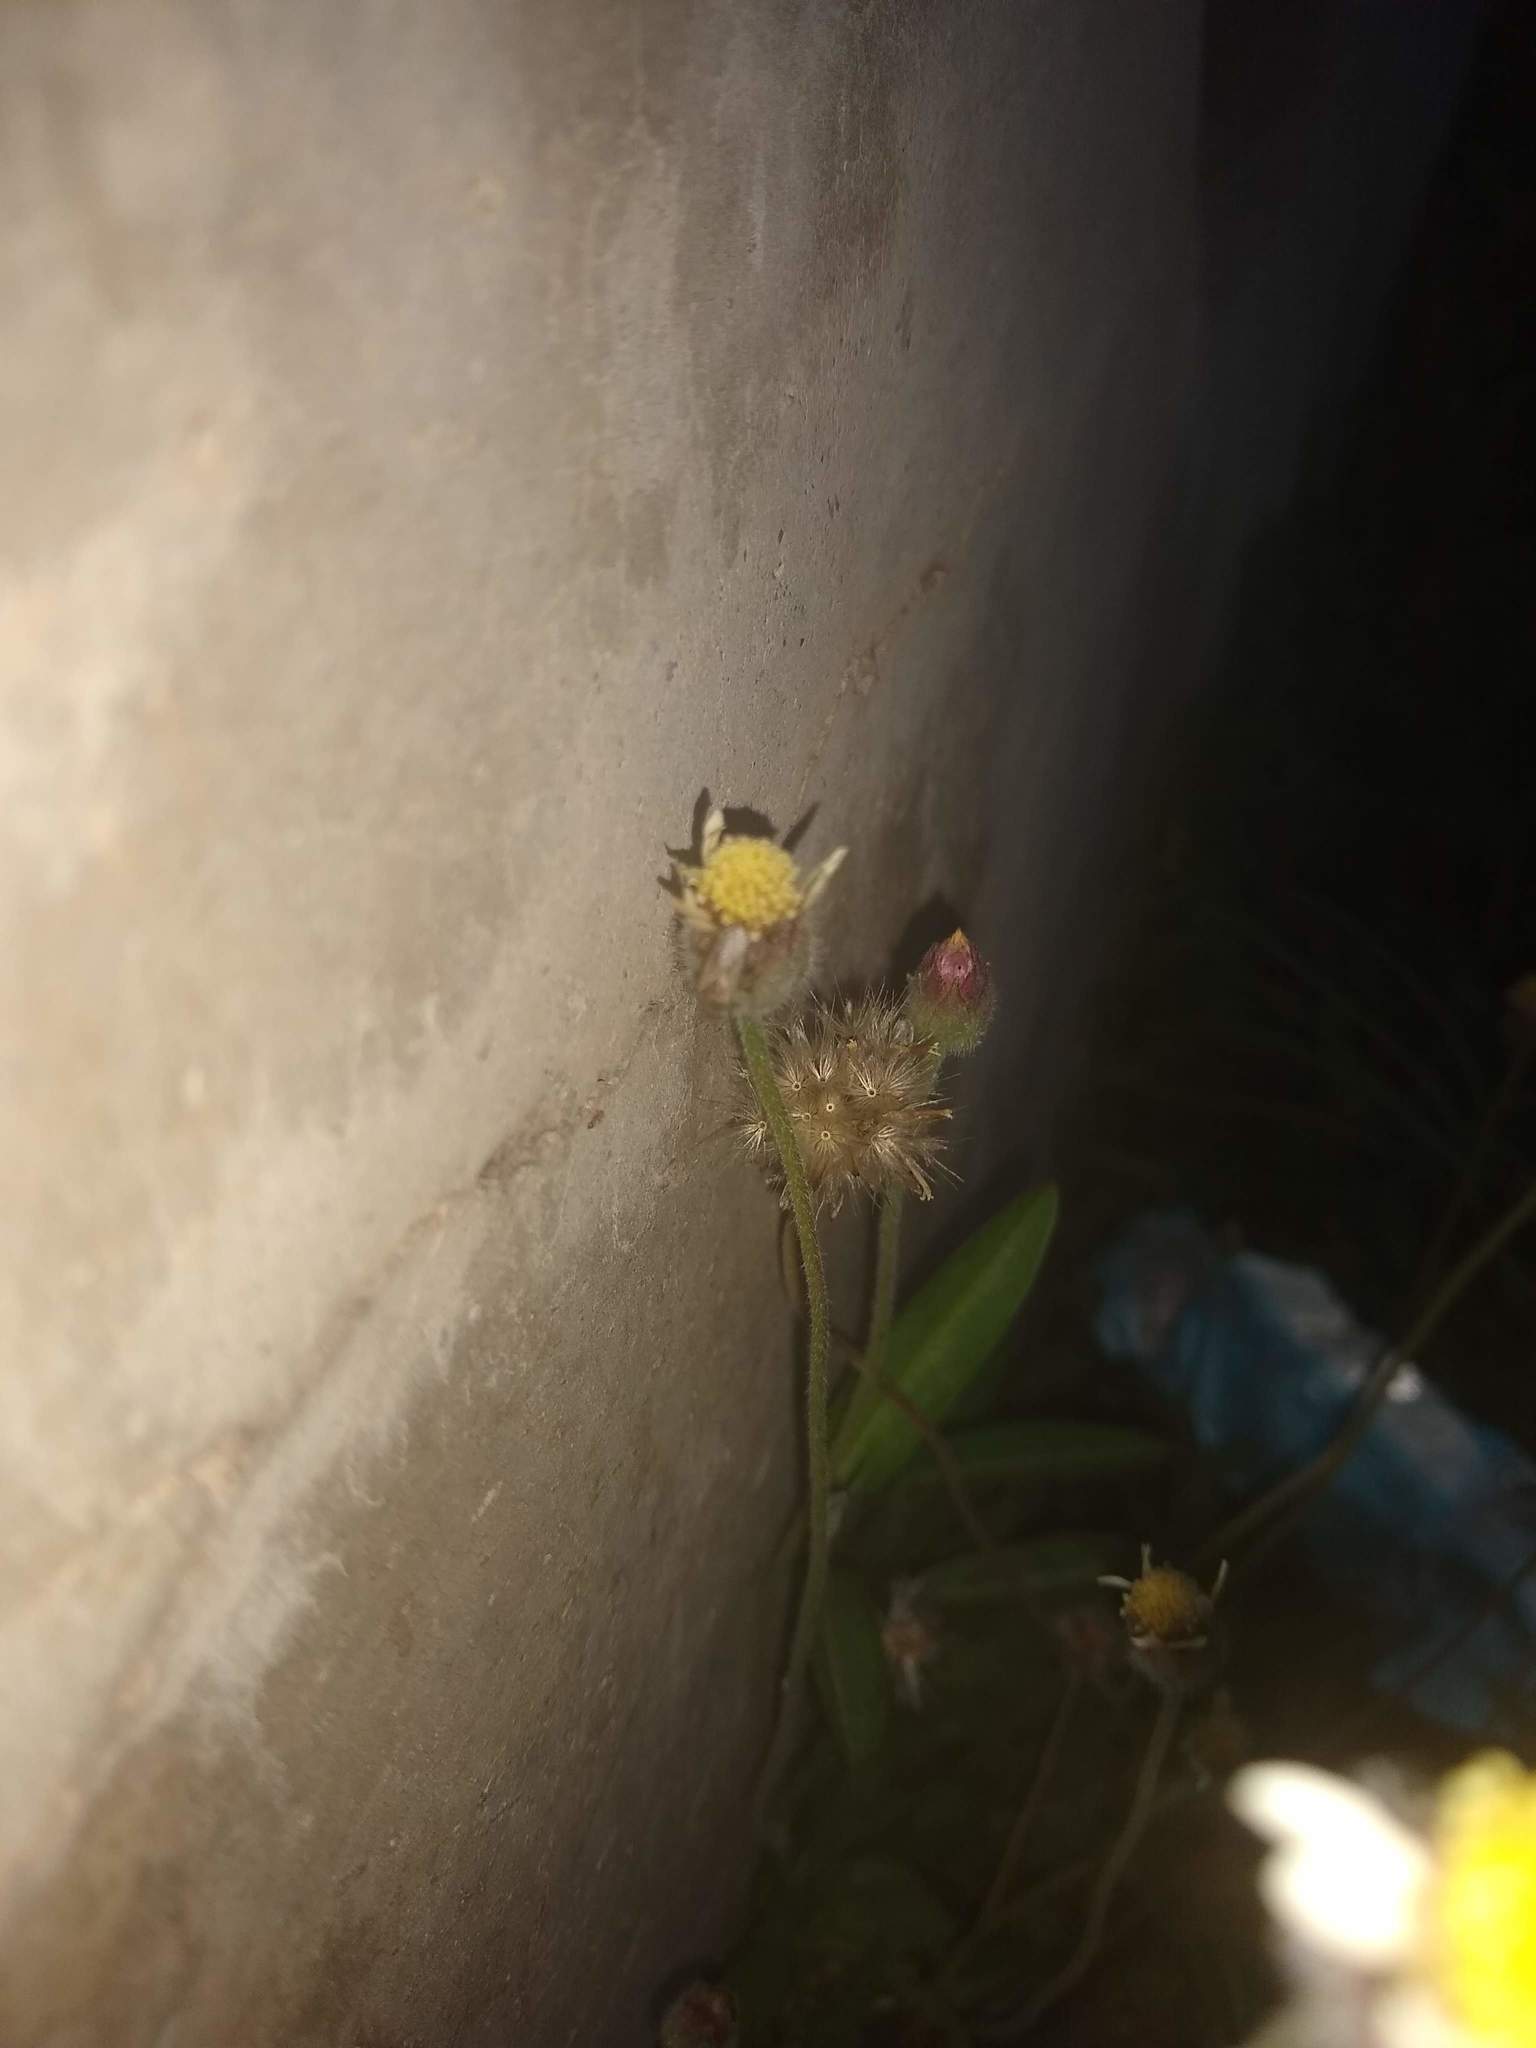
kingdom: Plantae
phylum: Tracheophyta
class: Magnoliopsida
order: Asterales
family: Asteraceae
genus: Tridax
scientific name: Tridax procumbens
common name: Coatbuttons
